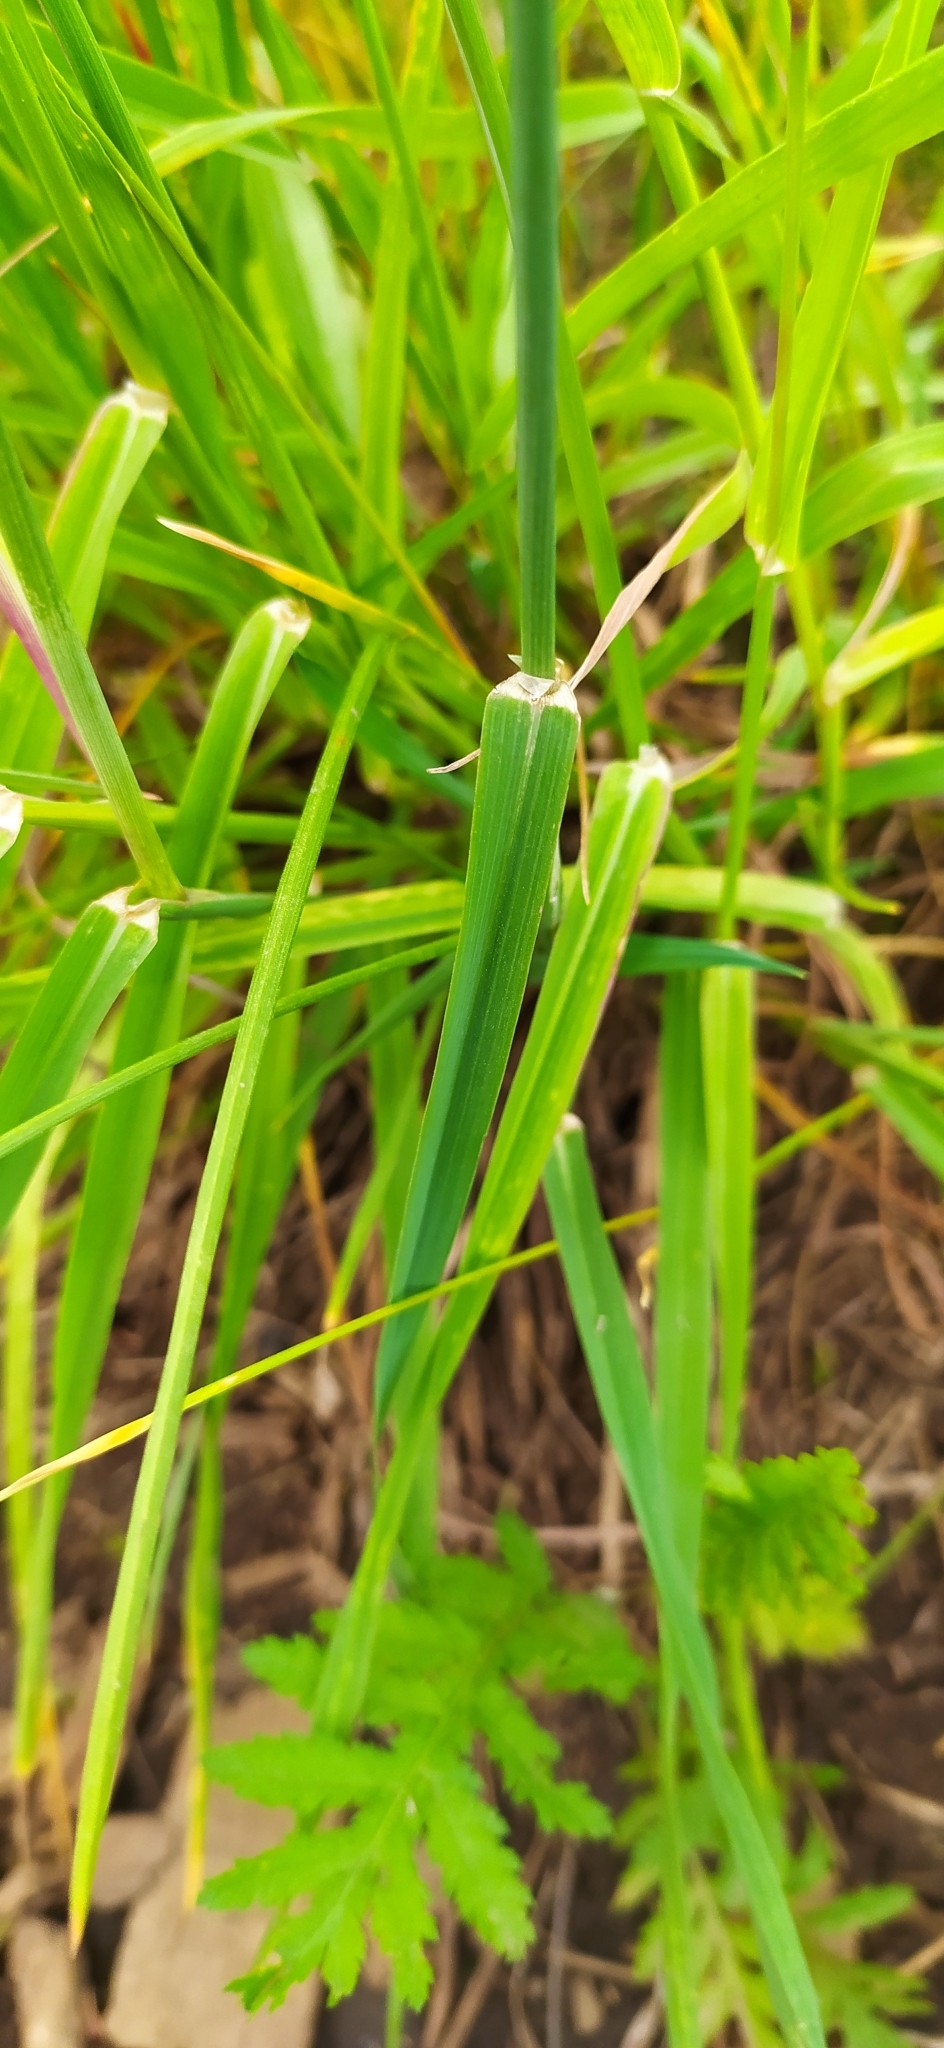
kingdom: Plantae
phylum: Tracheophyta
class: Liliopsida
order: Poales
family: Poaceae
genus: Phleum
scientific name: Phleum pratense
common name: Timothy grass
